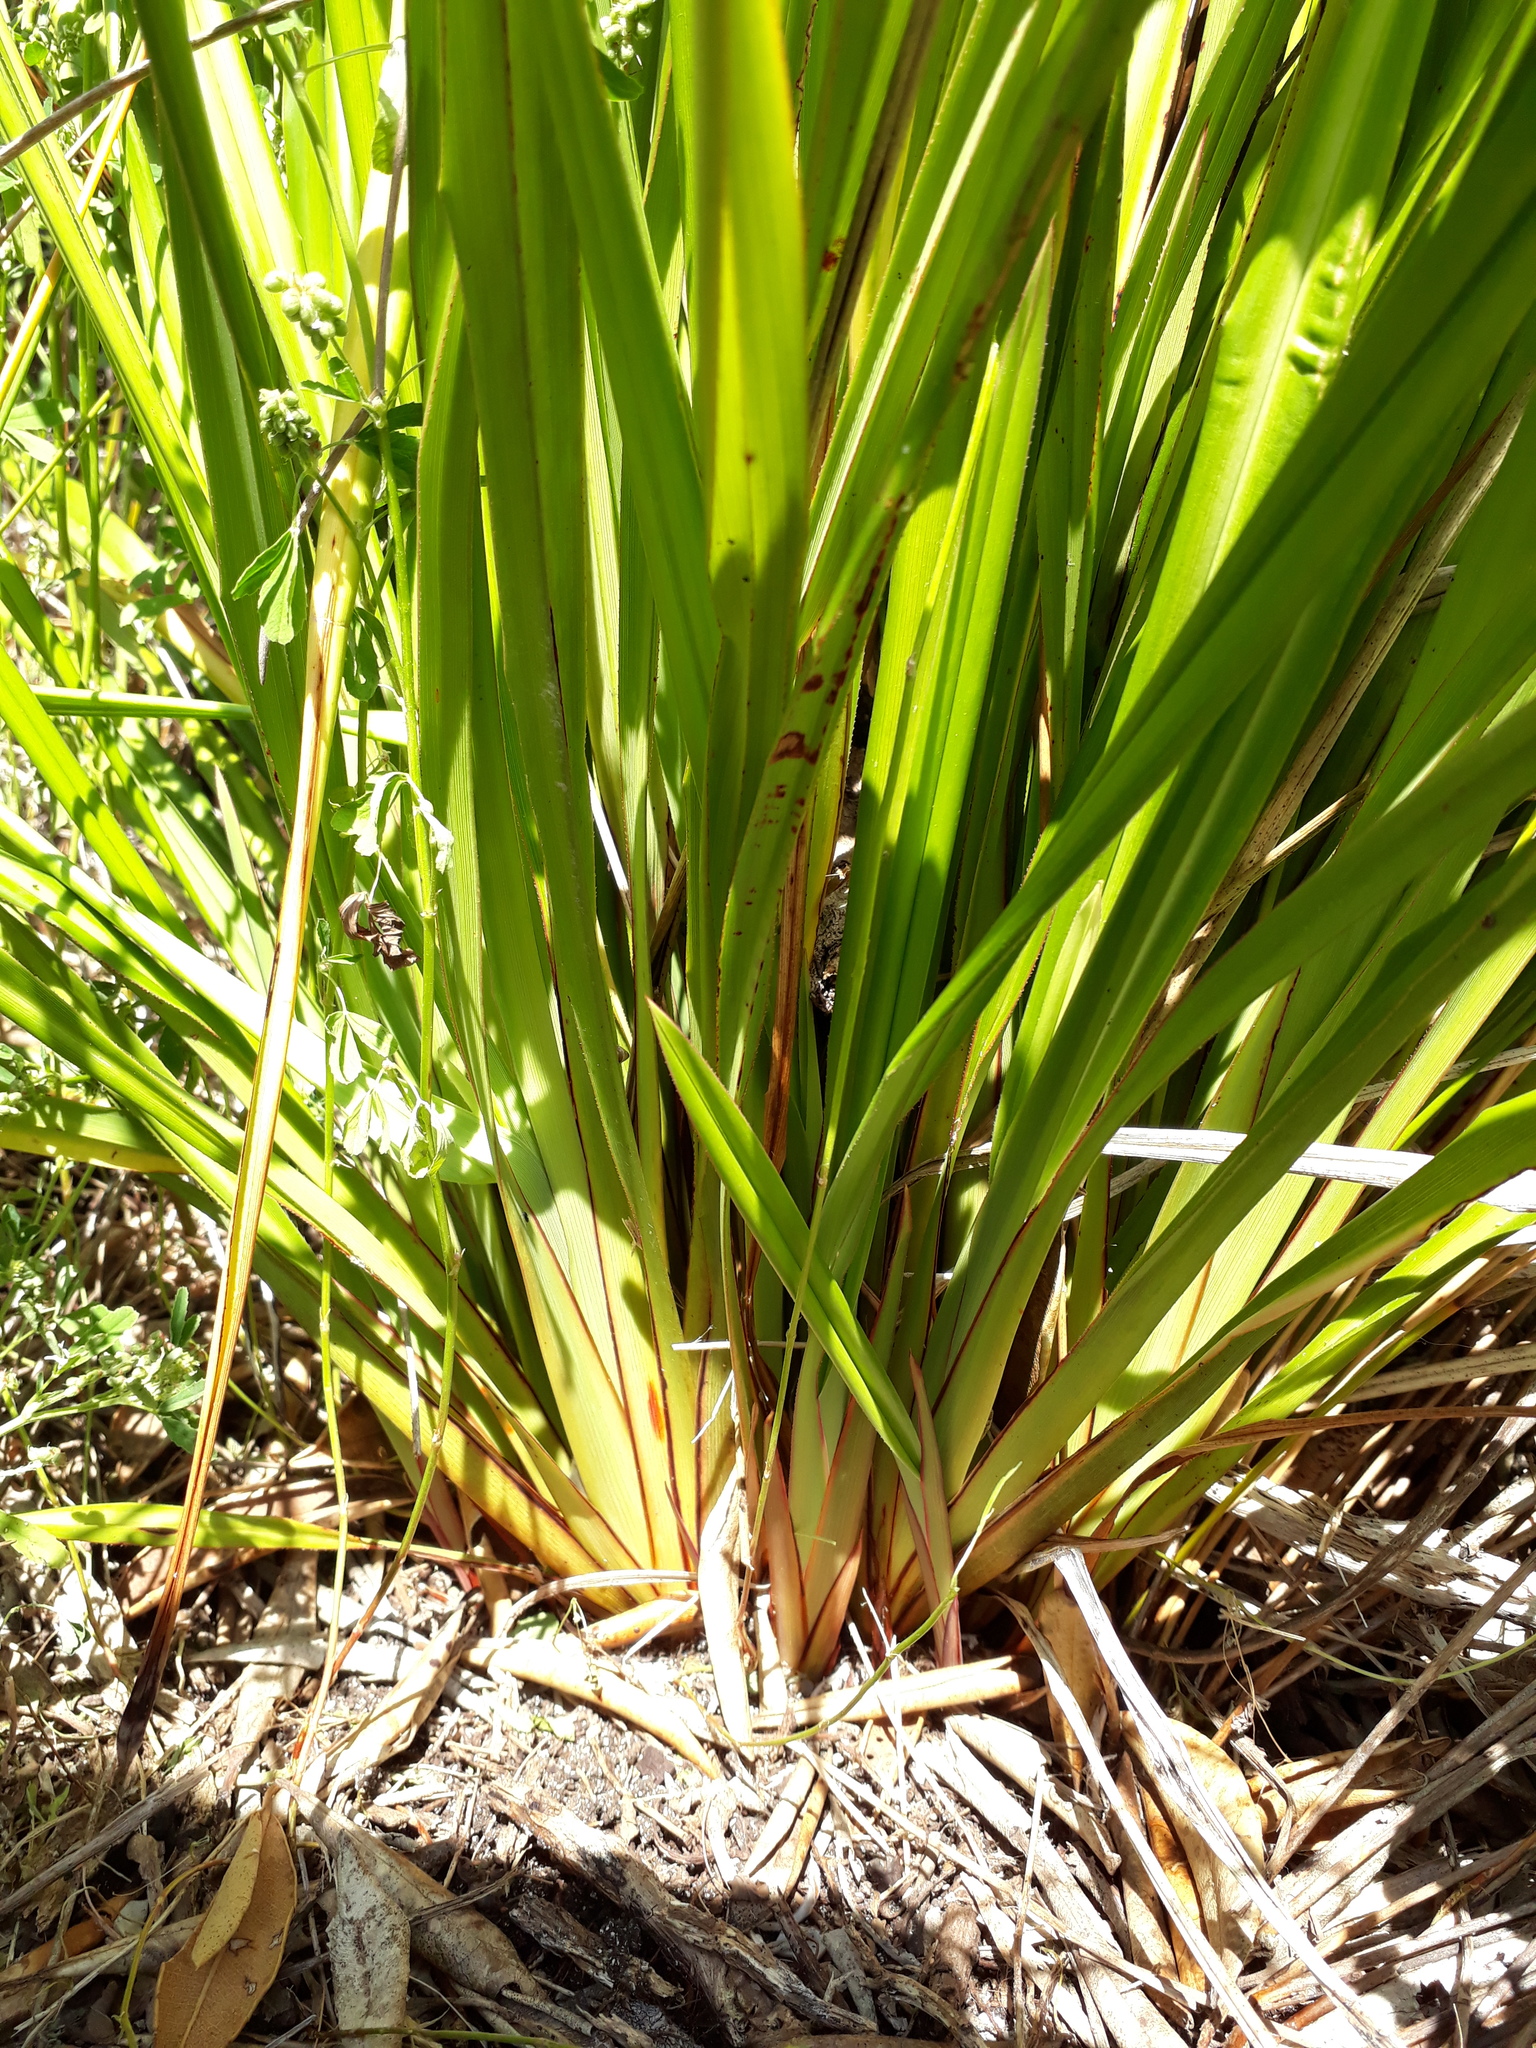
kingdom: Plantae
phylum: Tracheophyta
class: Liliopsida
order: Asparagales
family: Asphodelaceae
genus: Dianella
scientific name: Dianella latissima
